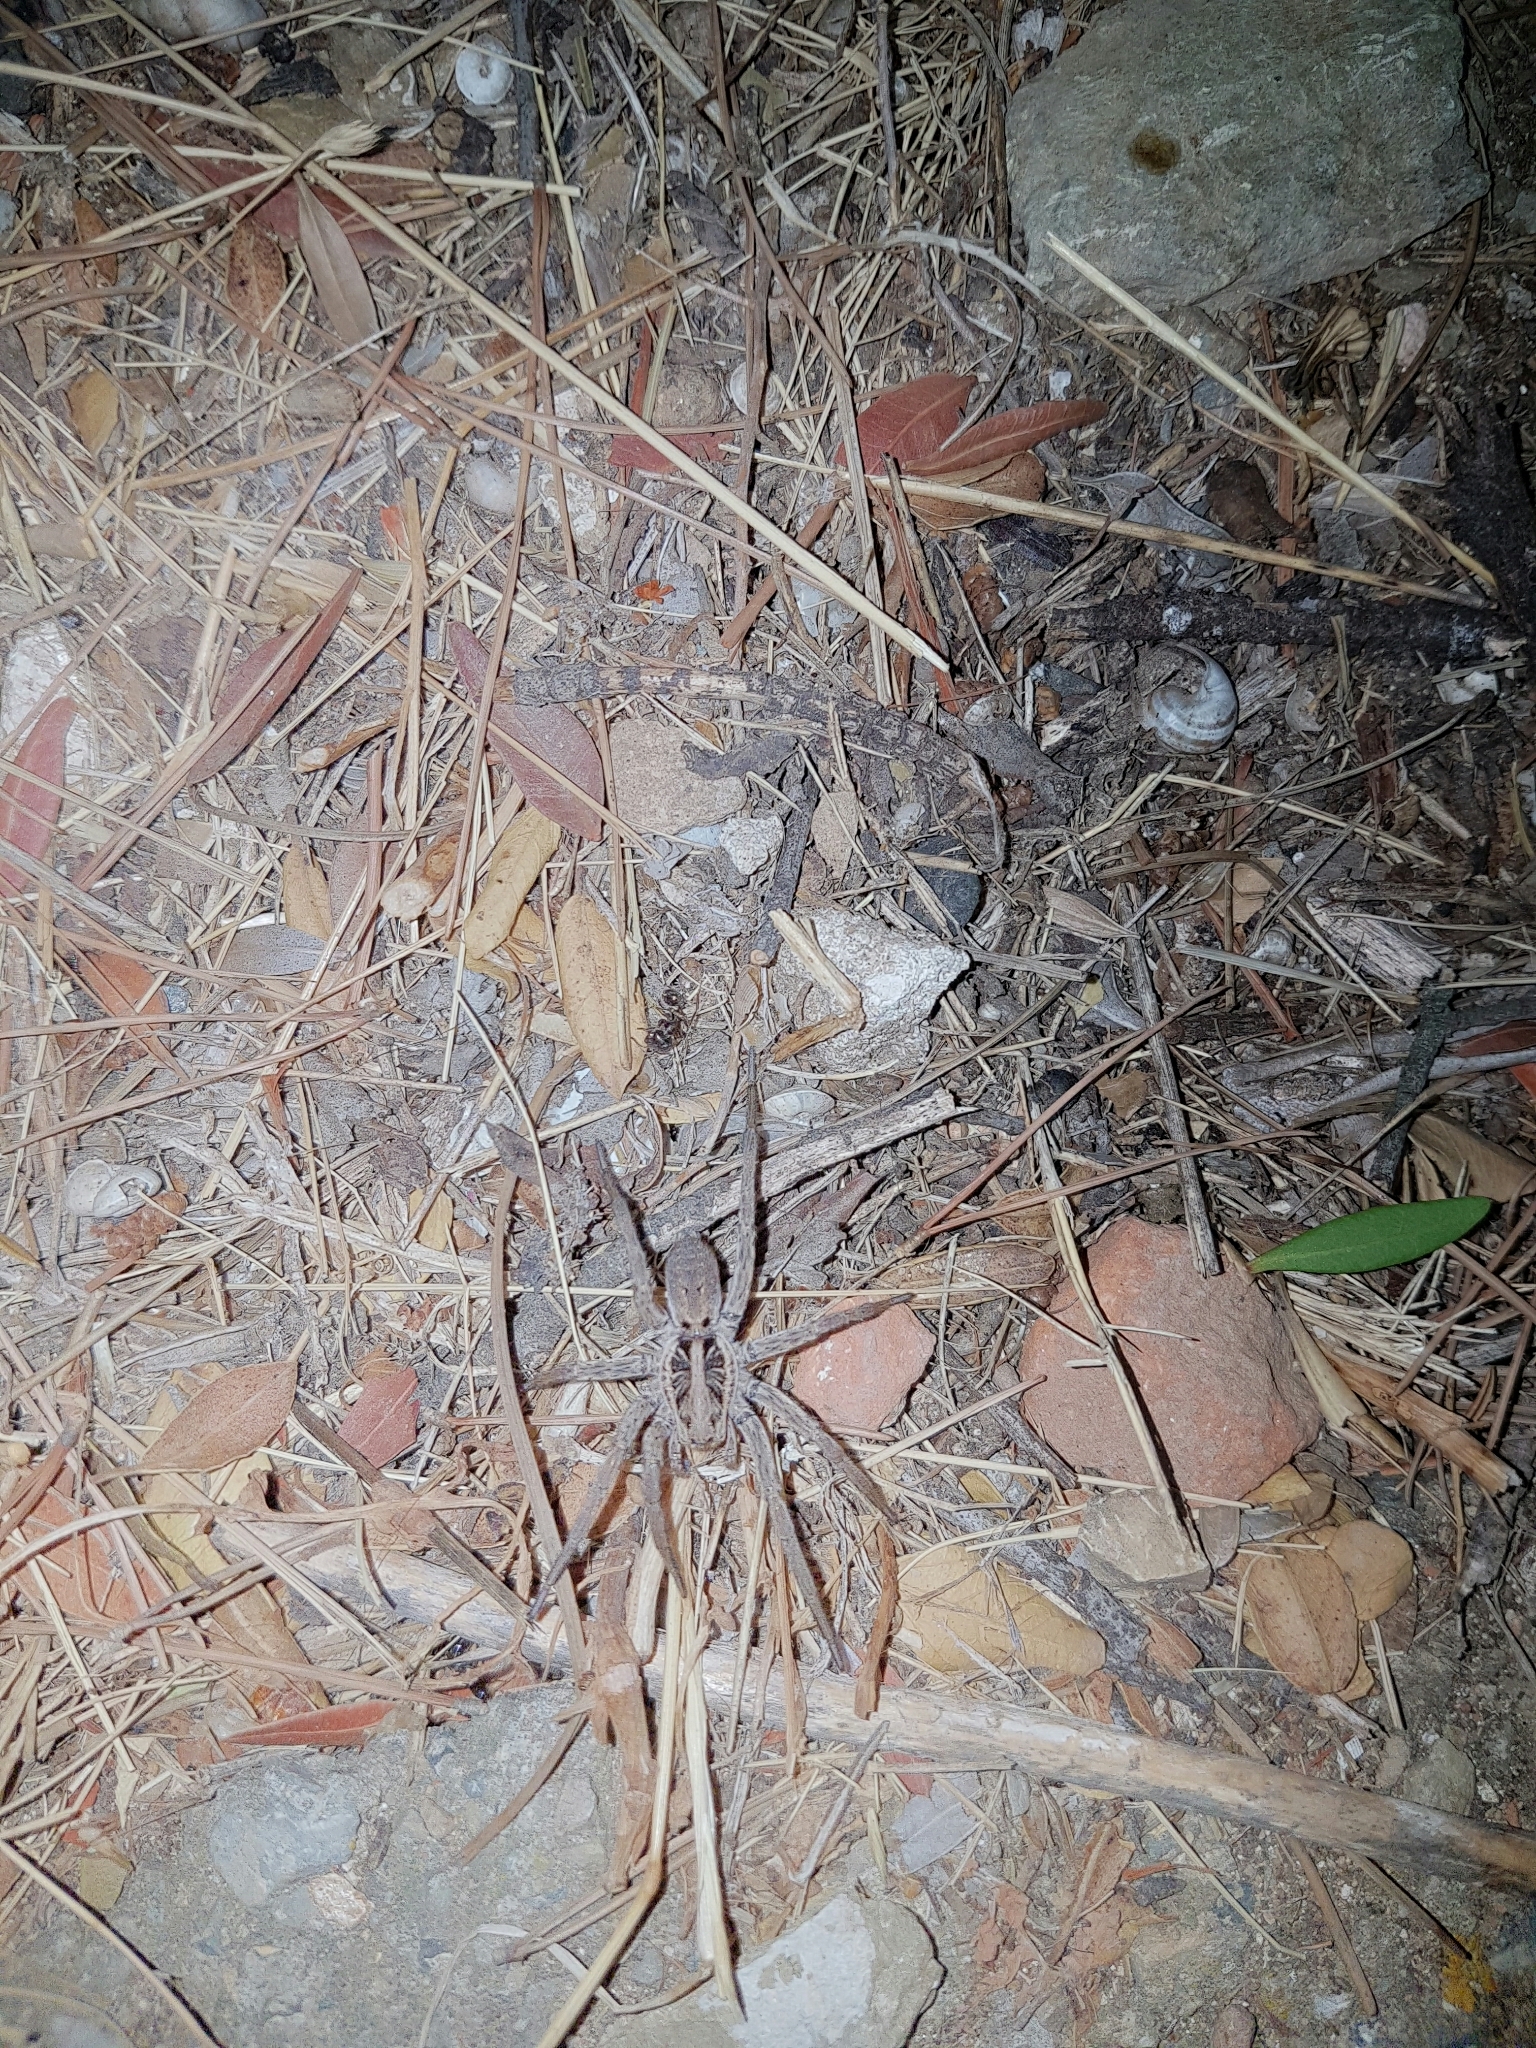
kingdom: Animalia
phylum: Arthropoda
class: Arachnida
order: Araneae
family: Lycosidae
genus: Lycosa
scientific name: Lycosa hispanica
